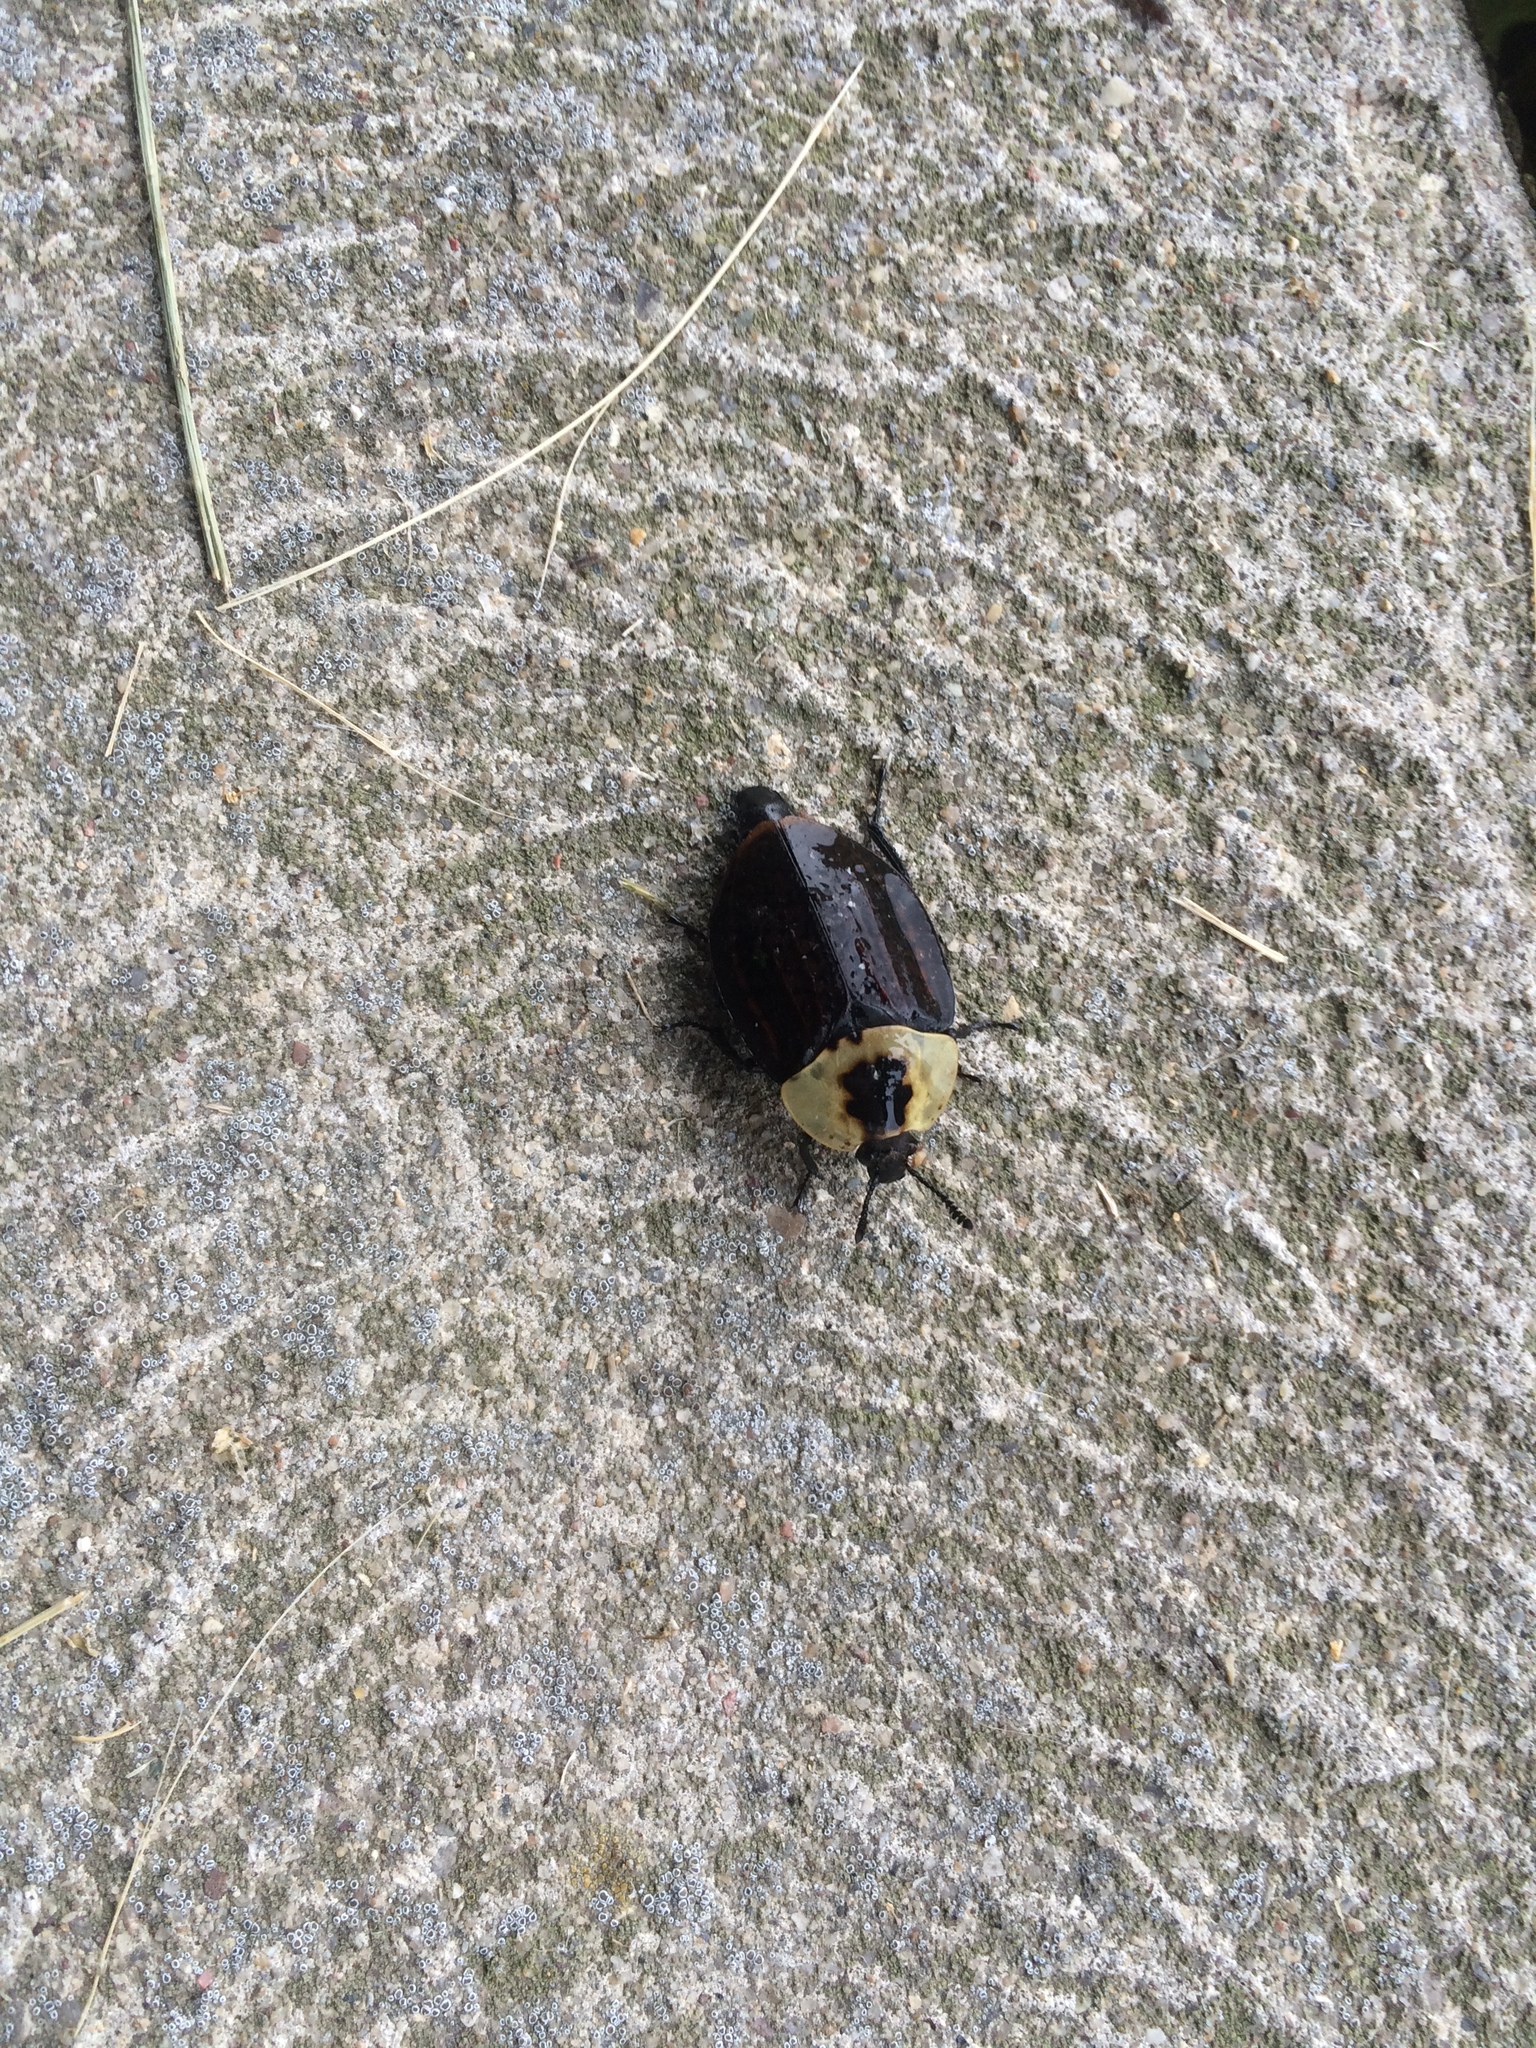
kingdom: Animalia
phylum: Arthropoda
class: Insecta
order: Coleoptera
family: Staphylinidae
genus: Necrophila
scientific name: Necrophila americana
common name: American carrion beetle
